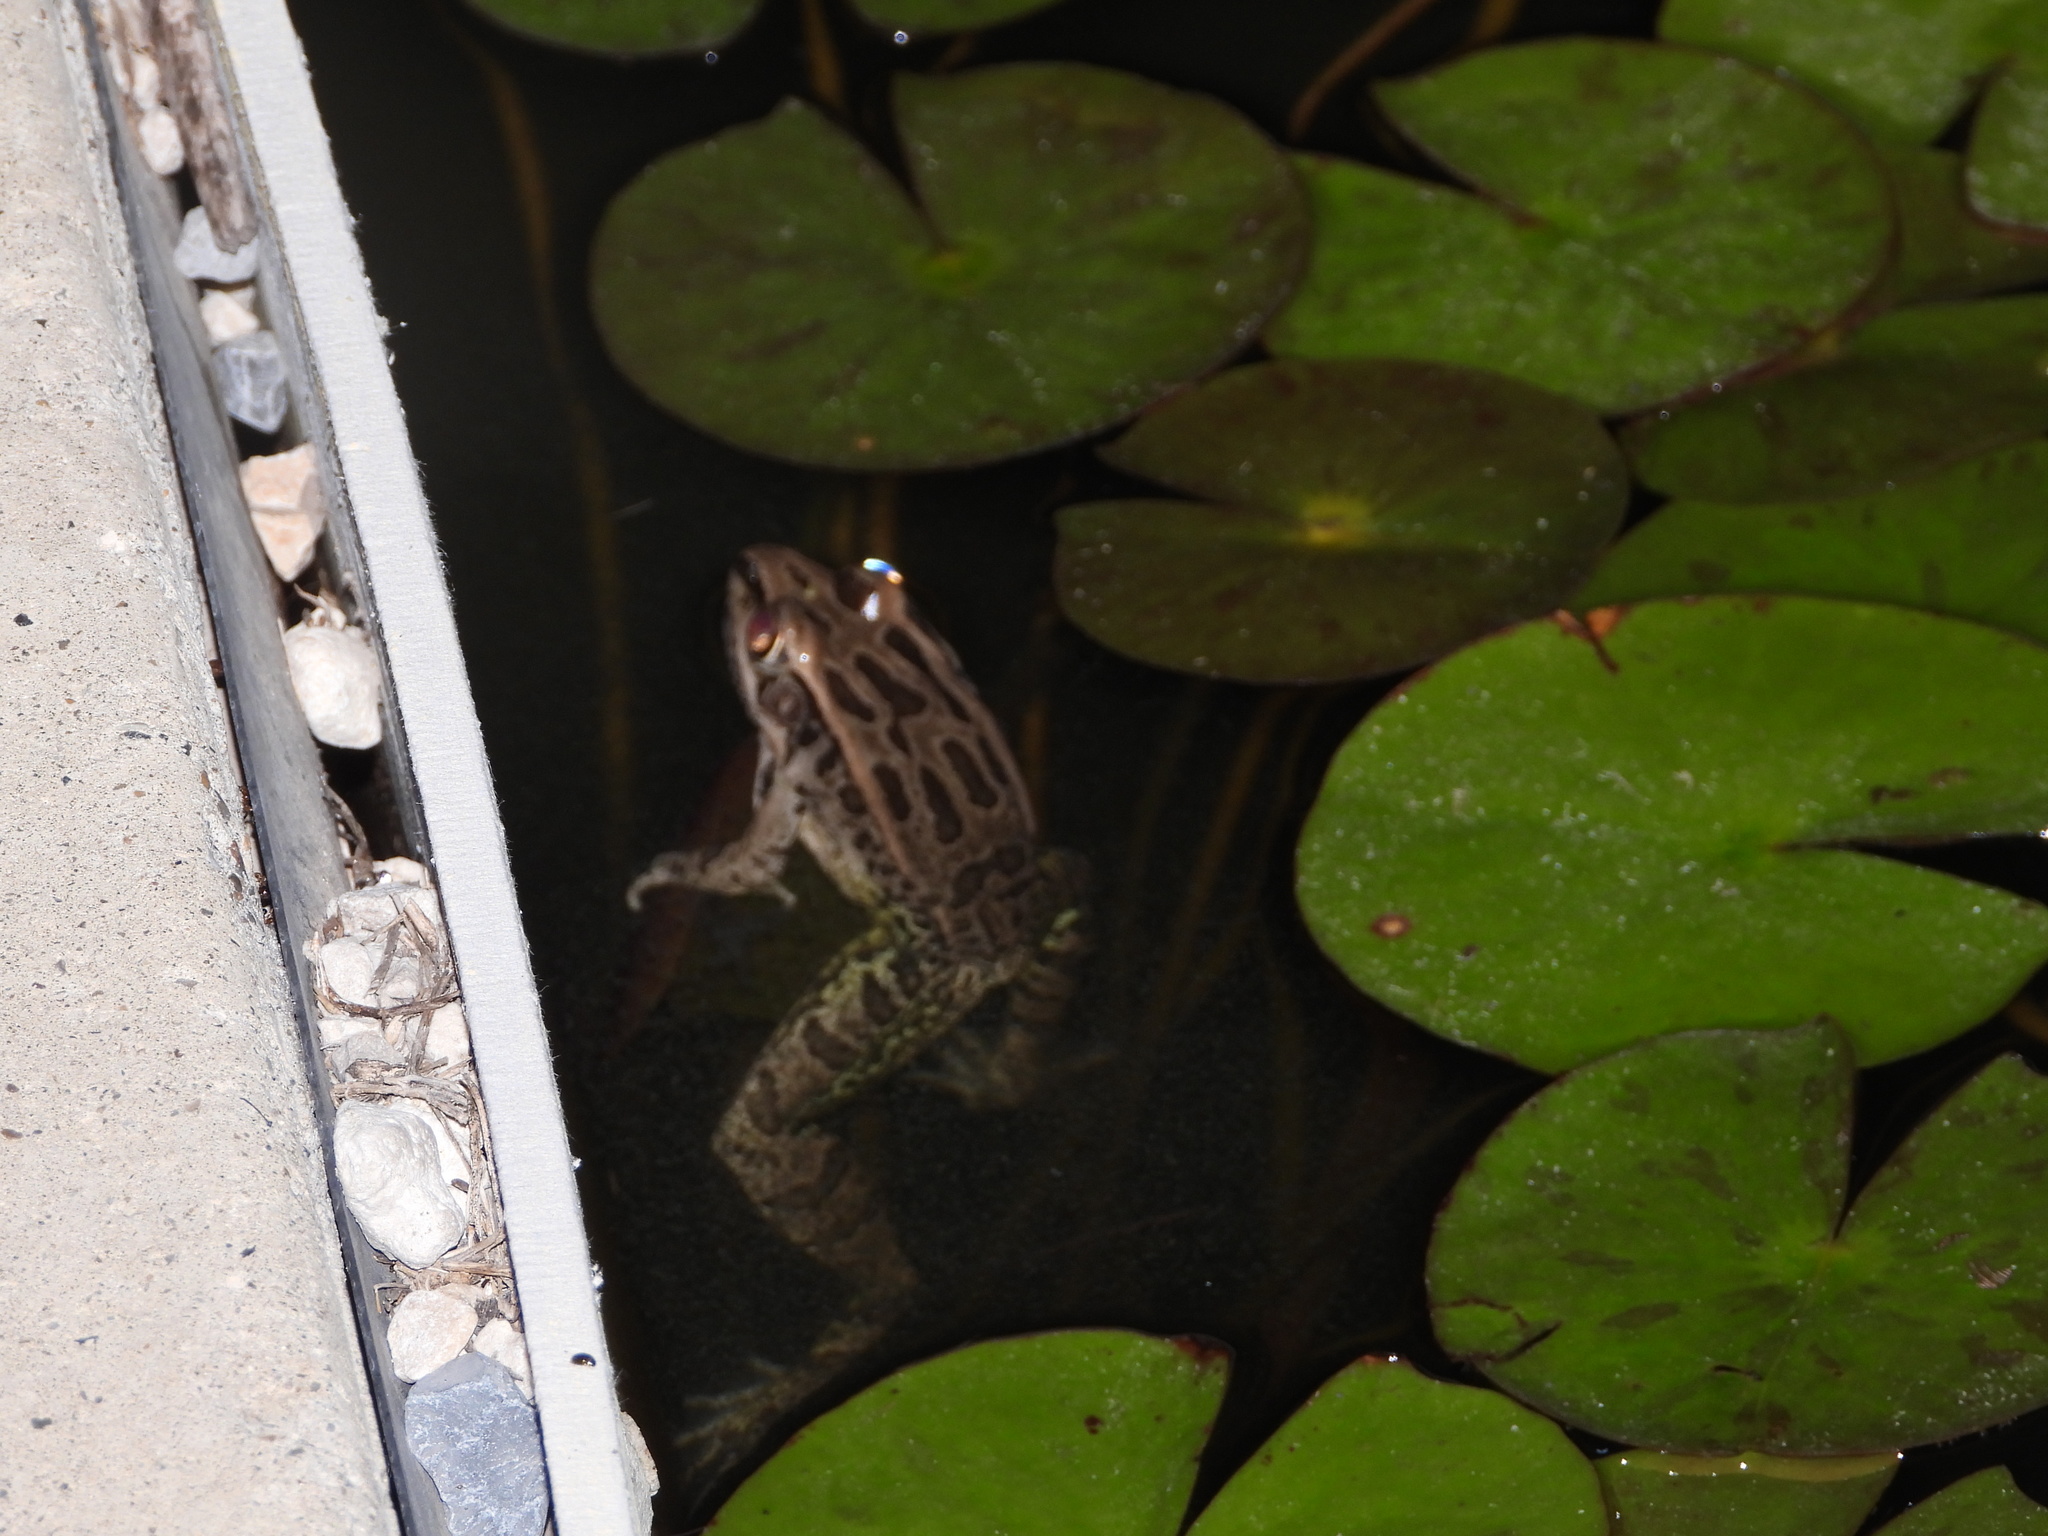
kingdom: Animalia
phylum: Chordata
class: Amphibia
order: Anura
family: Ranidae
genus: Lithobates
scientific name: Lithobates berlandieri
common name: Rio grande leopard frog
